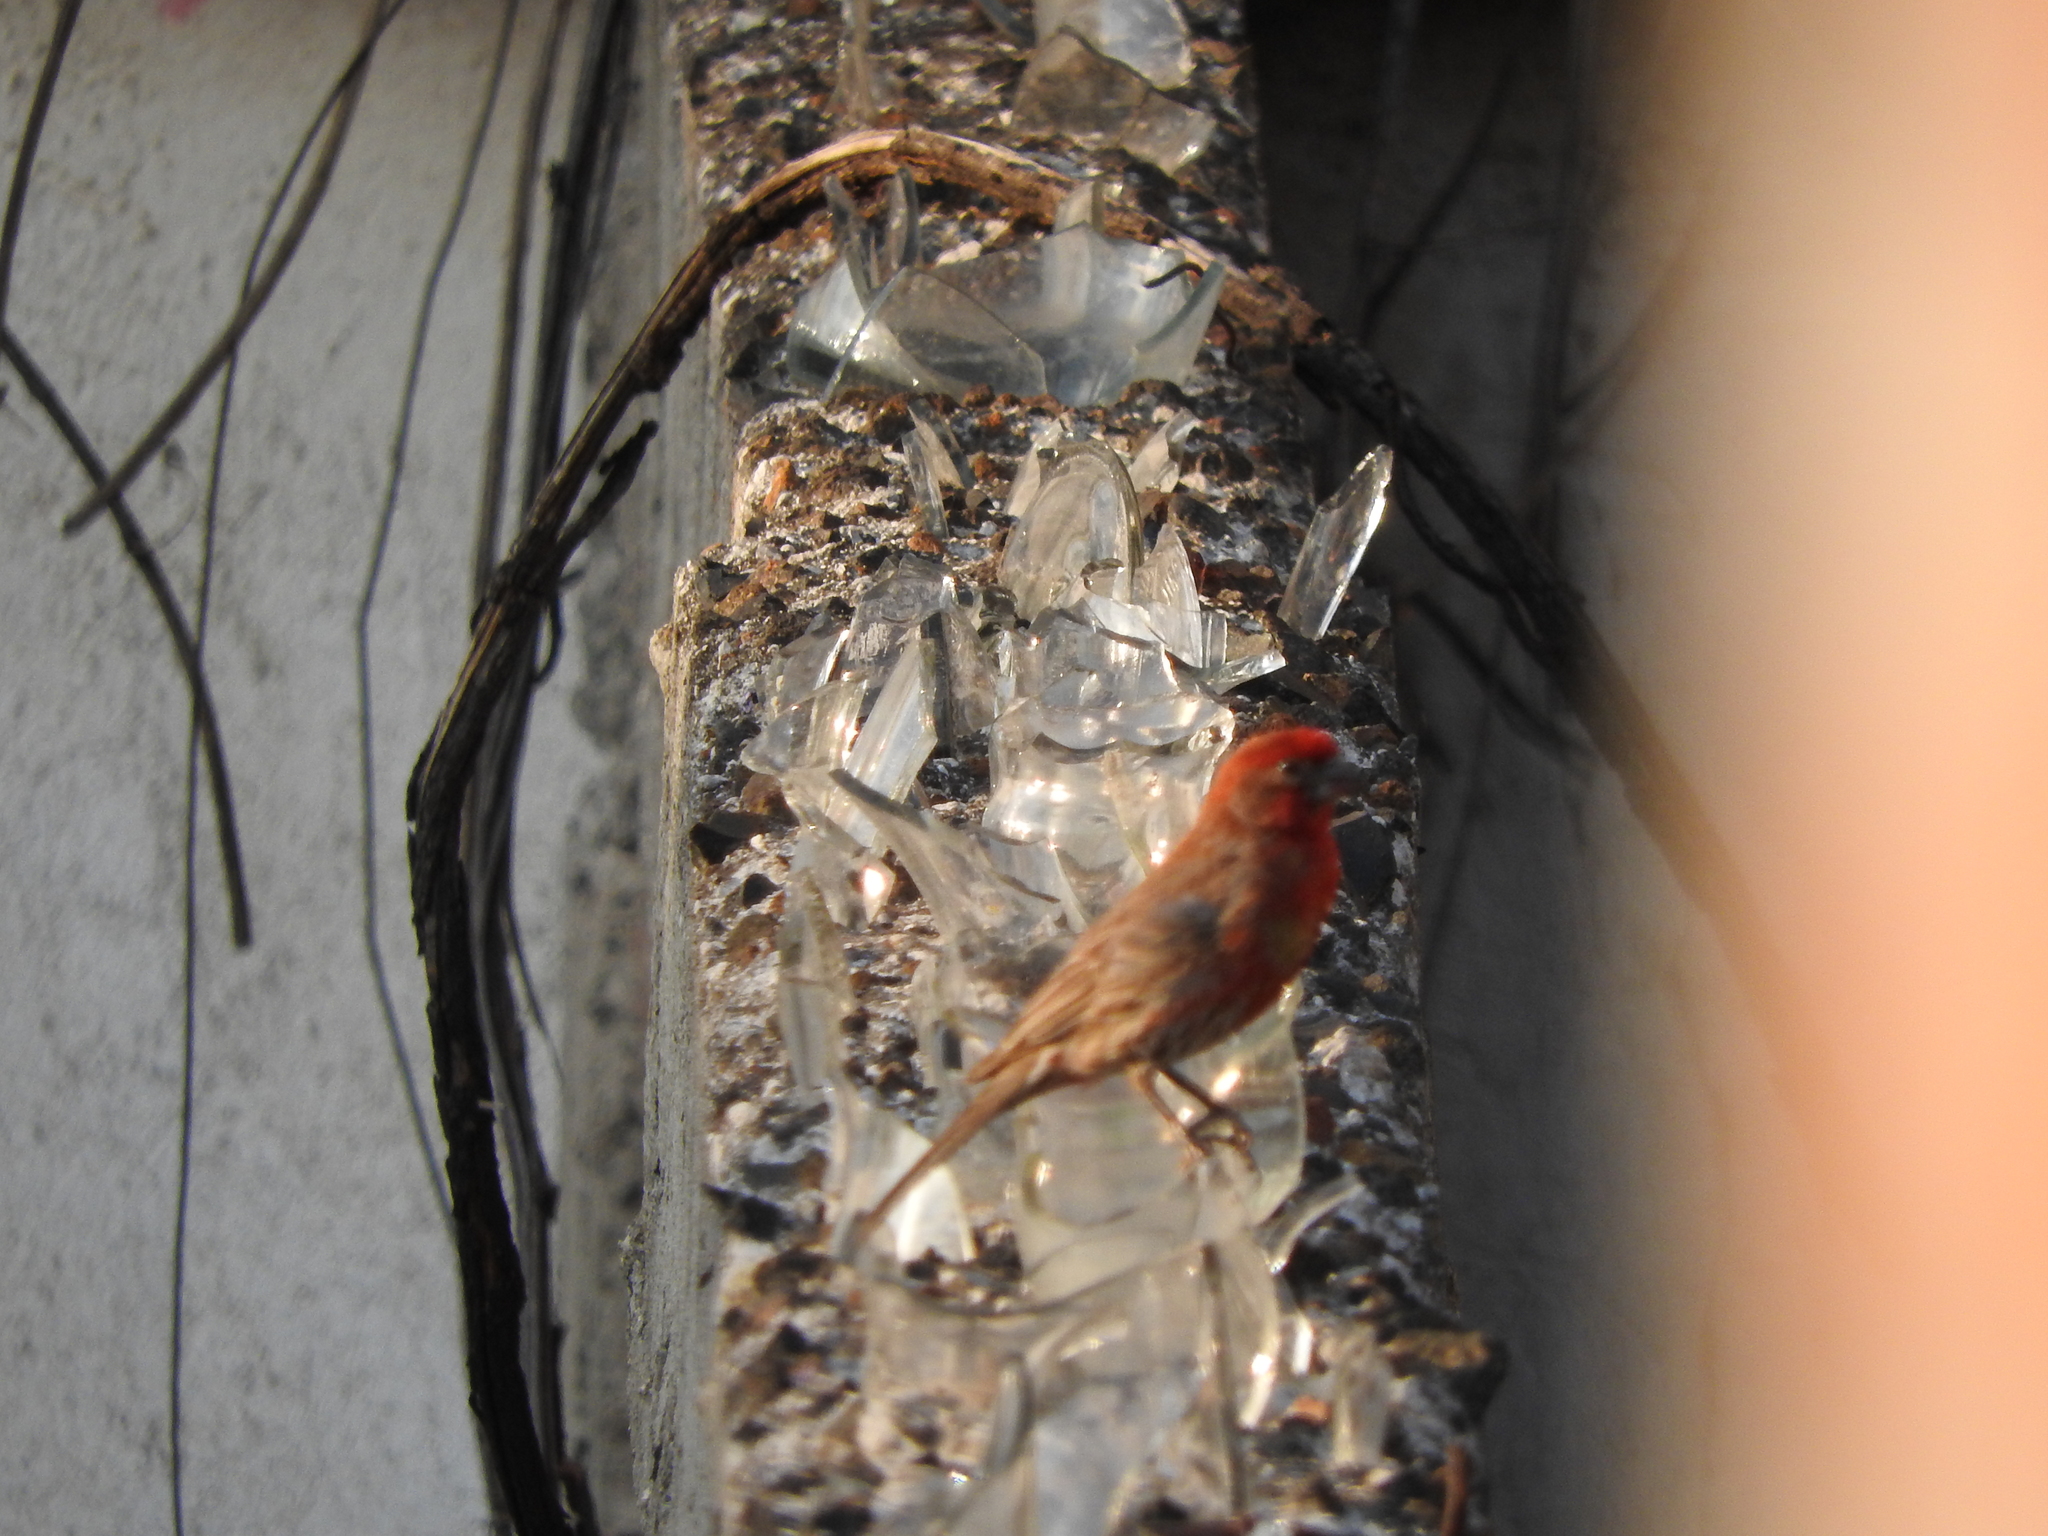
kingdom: Animalia
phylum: Chordata
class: Aves
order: Passeriformes
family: Fringillidae
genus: Haemorhous
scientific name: Haemorhous mexicanus
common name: House finch
